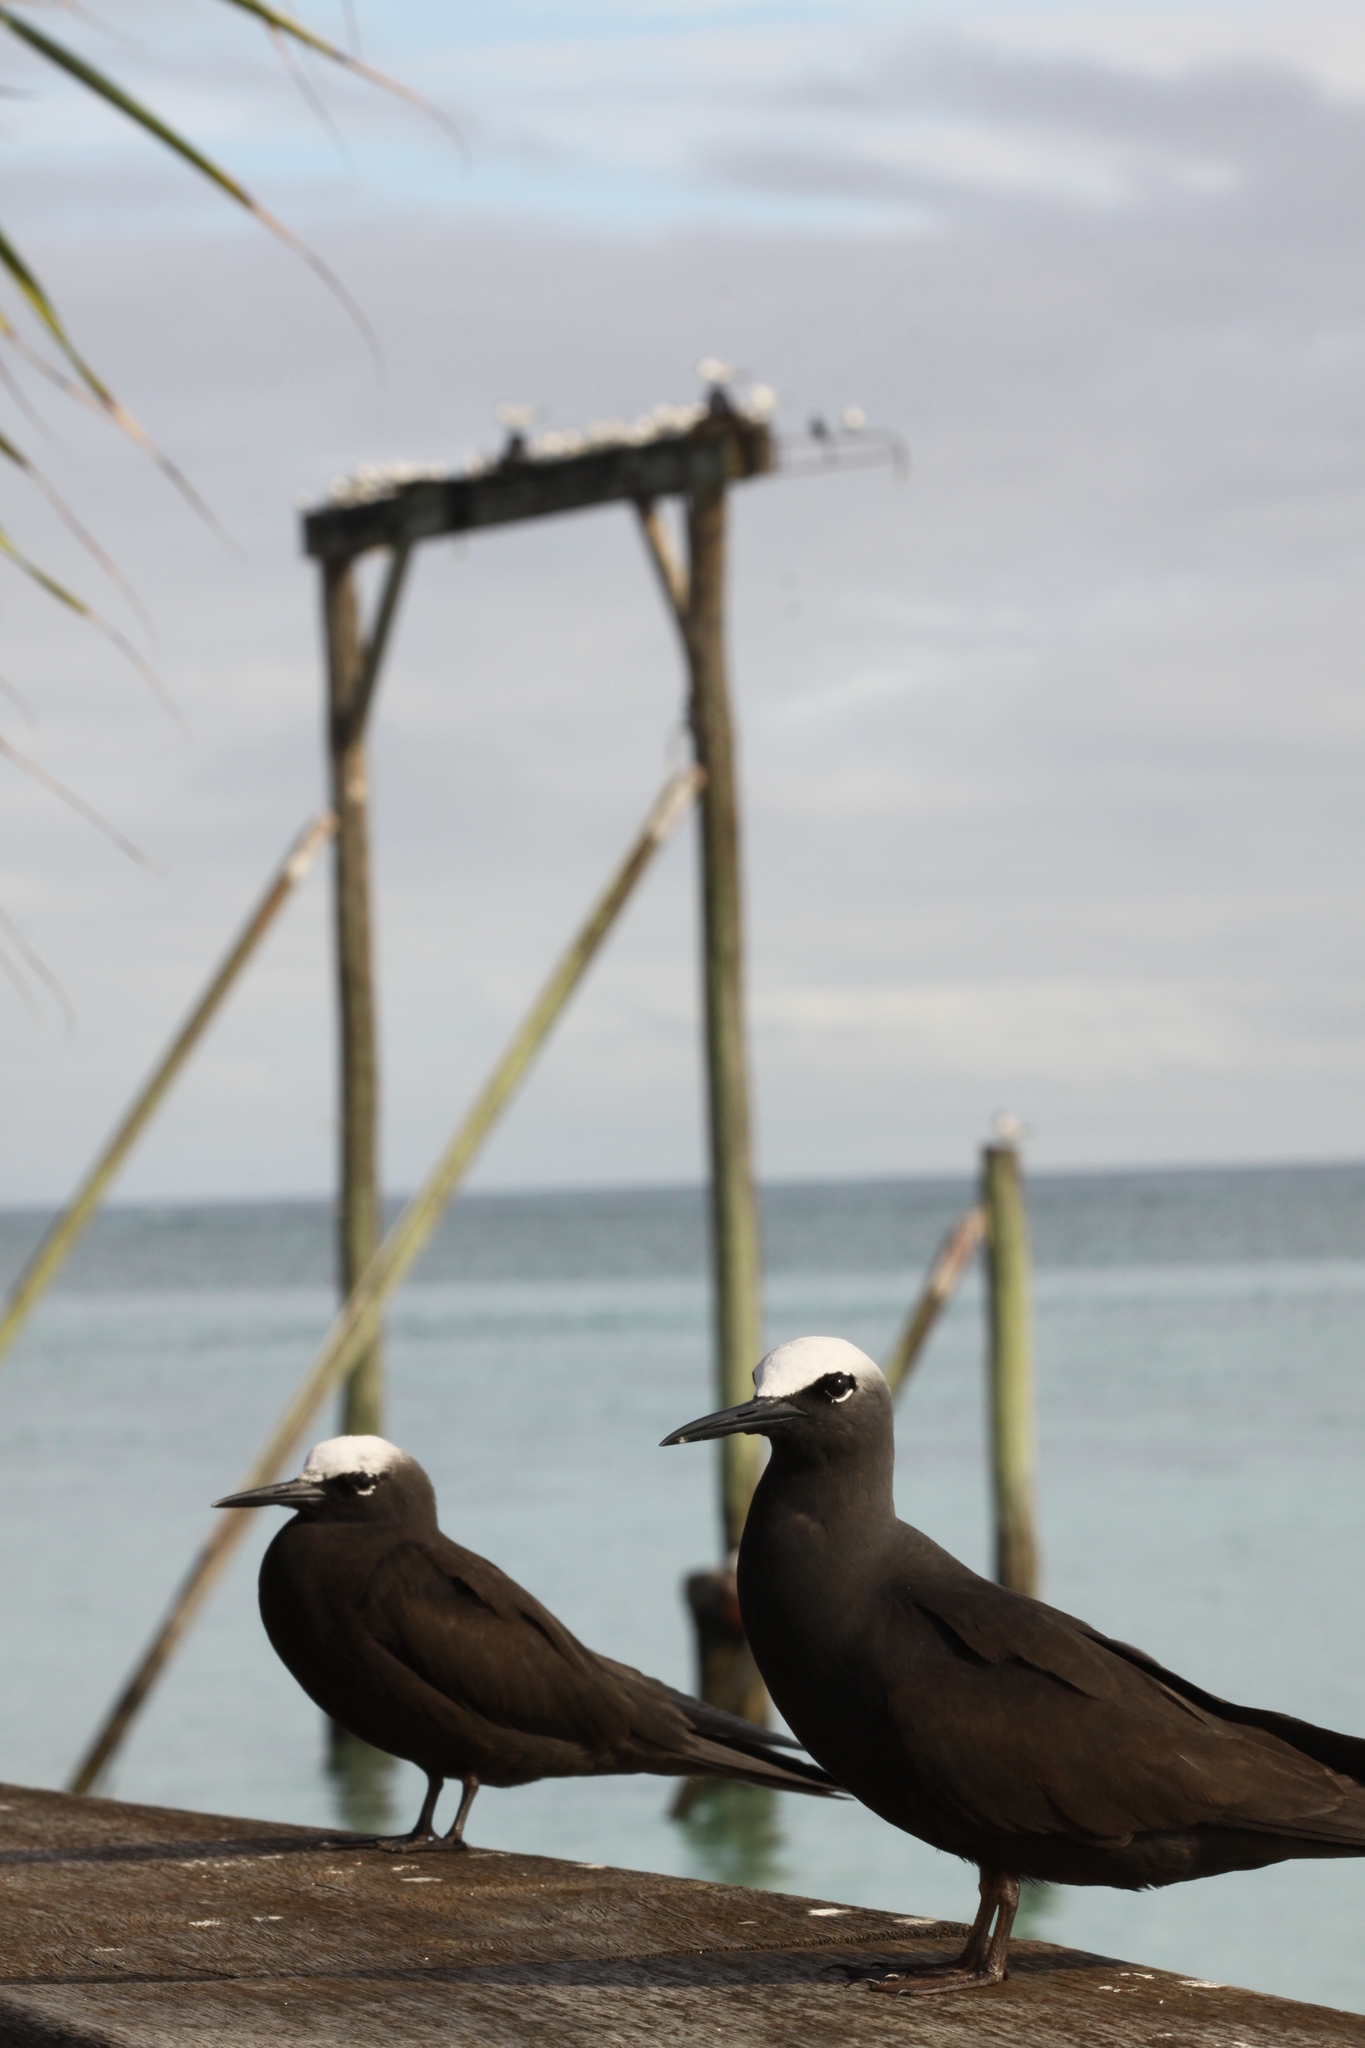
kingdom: Animalia
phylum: Chordata
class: Aves
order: Charadriiformes
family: Laridae
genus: Anous
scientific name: Anous minutus
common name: Black noddy
